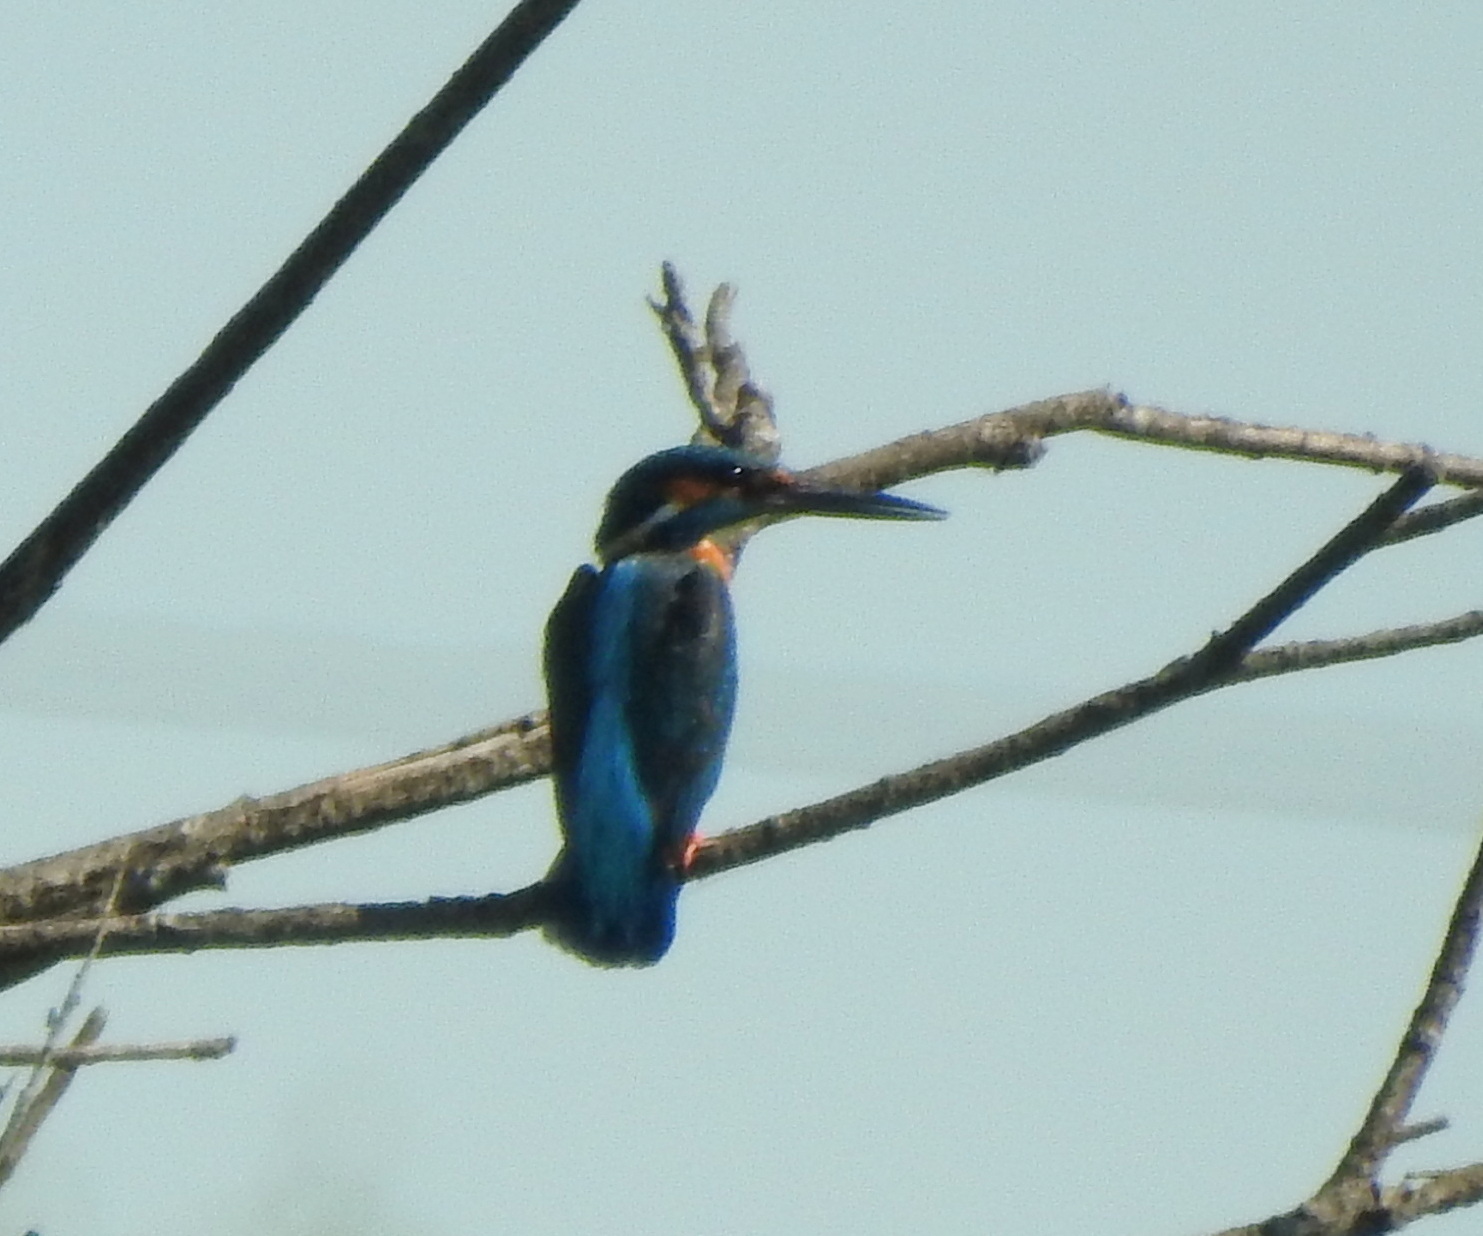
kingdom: Animalia
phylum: Chordata
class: Aves
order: Coraciiformes
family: Alcedinidae
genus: Alcedo
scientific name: Alcedo atthis
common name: Common kingfisher
